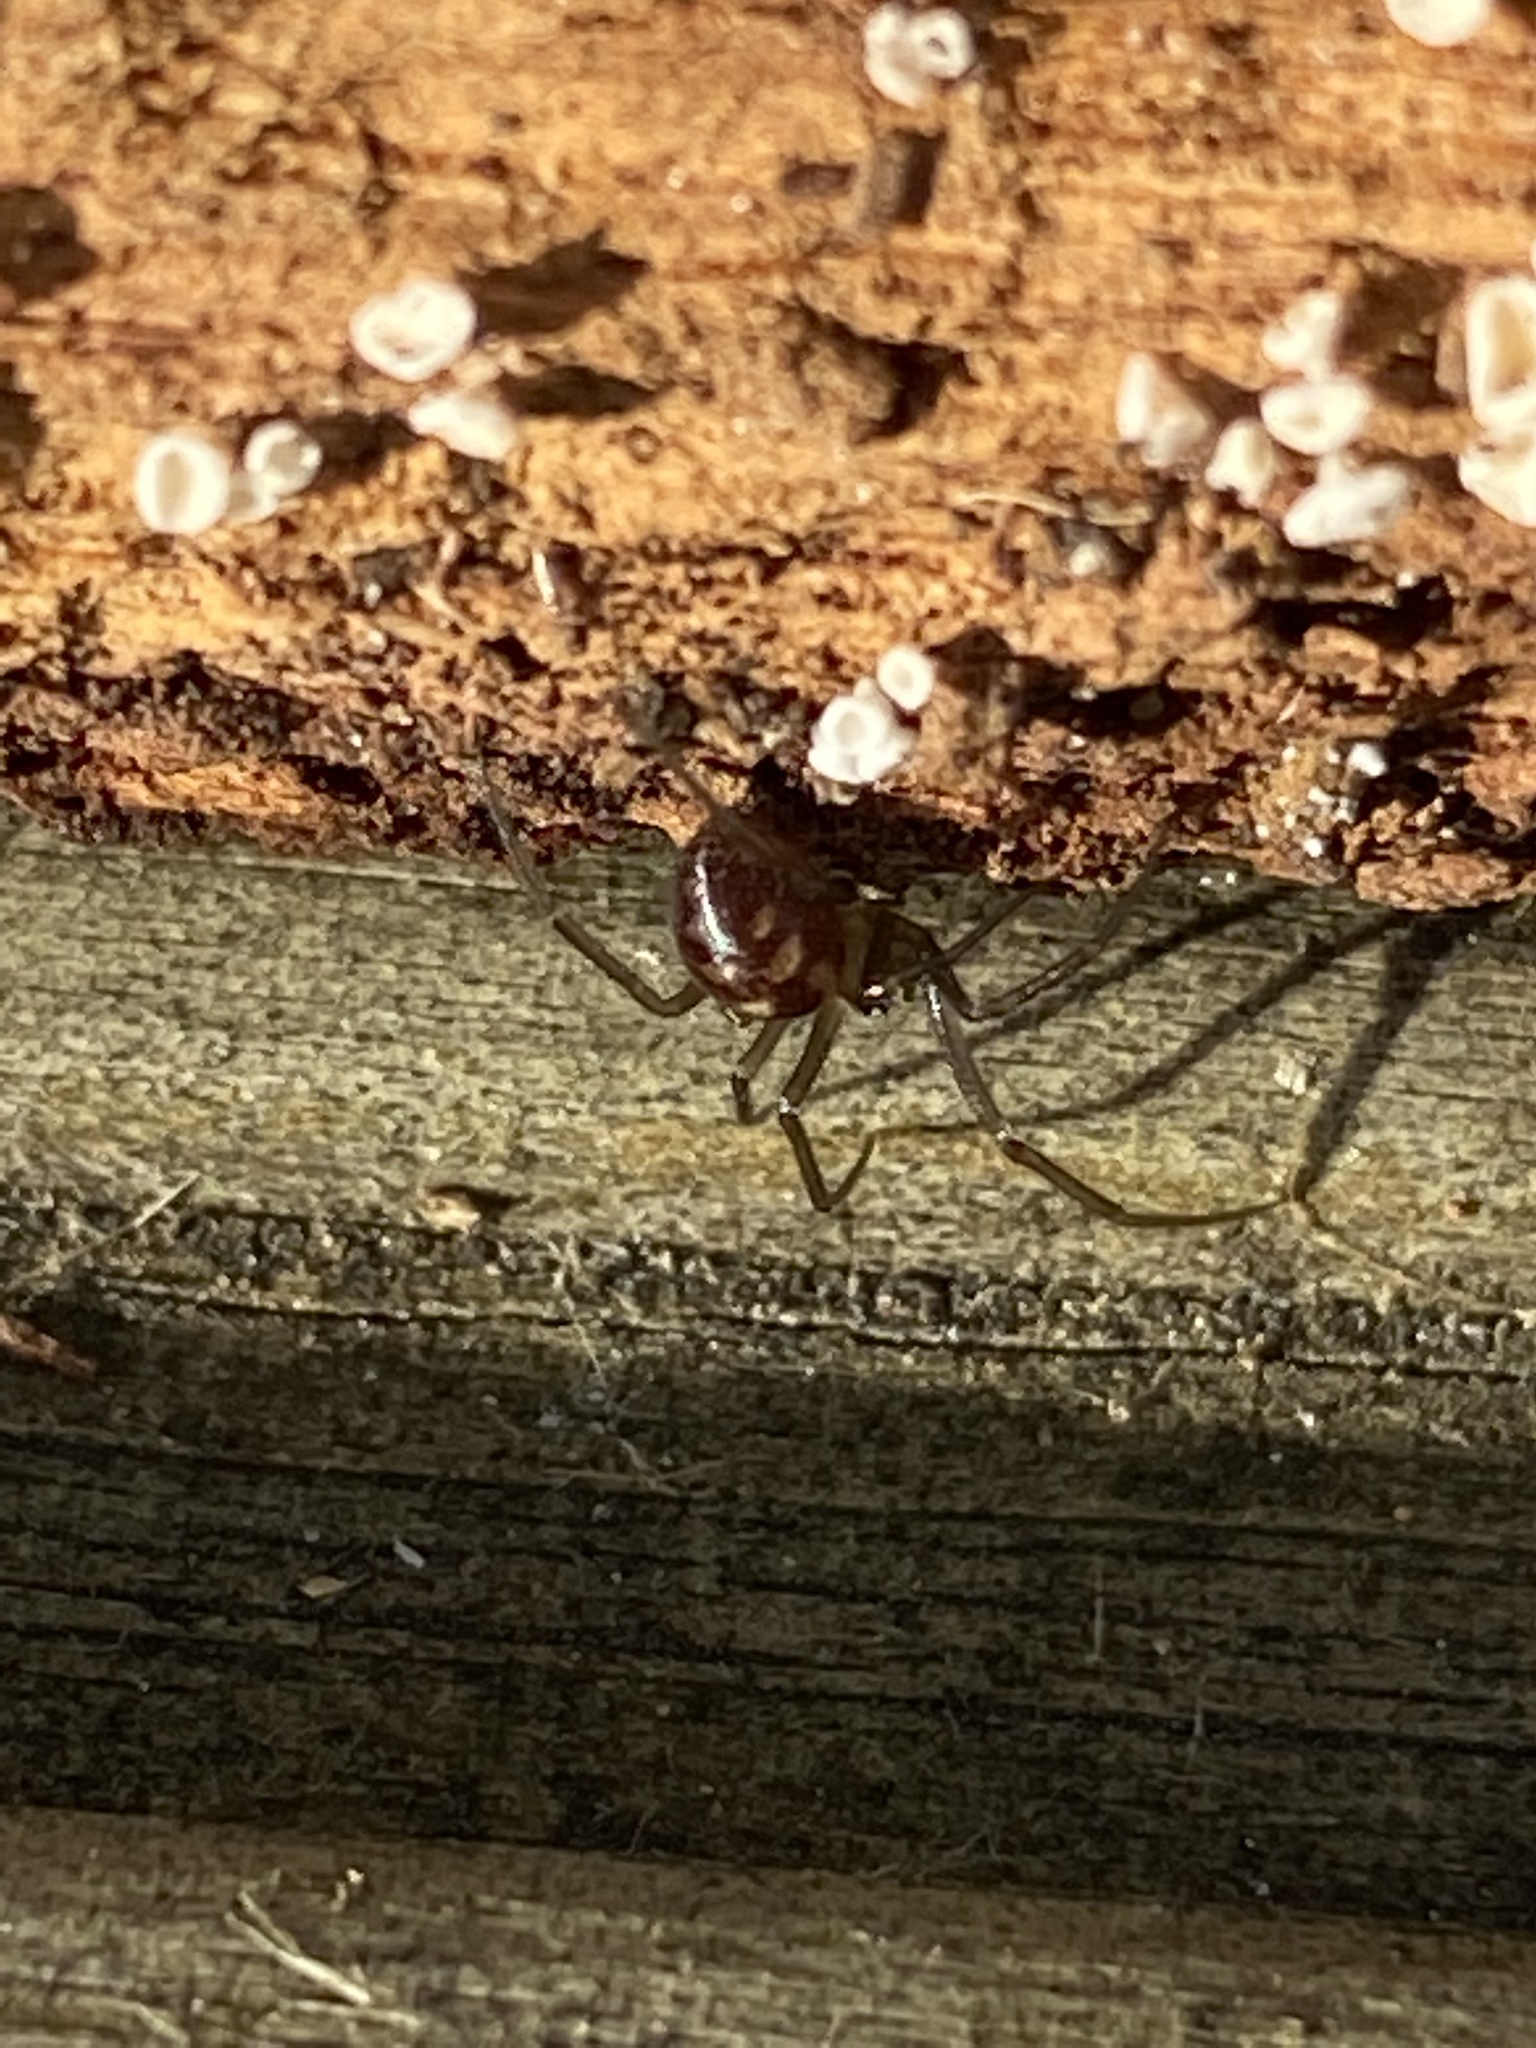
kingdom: Animalia
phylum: Arthropoda
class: Arachnida
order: Araneae
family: Theridiidae
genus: Steatoda
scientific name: Steatoda grossa
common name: False black widow
